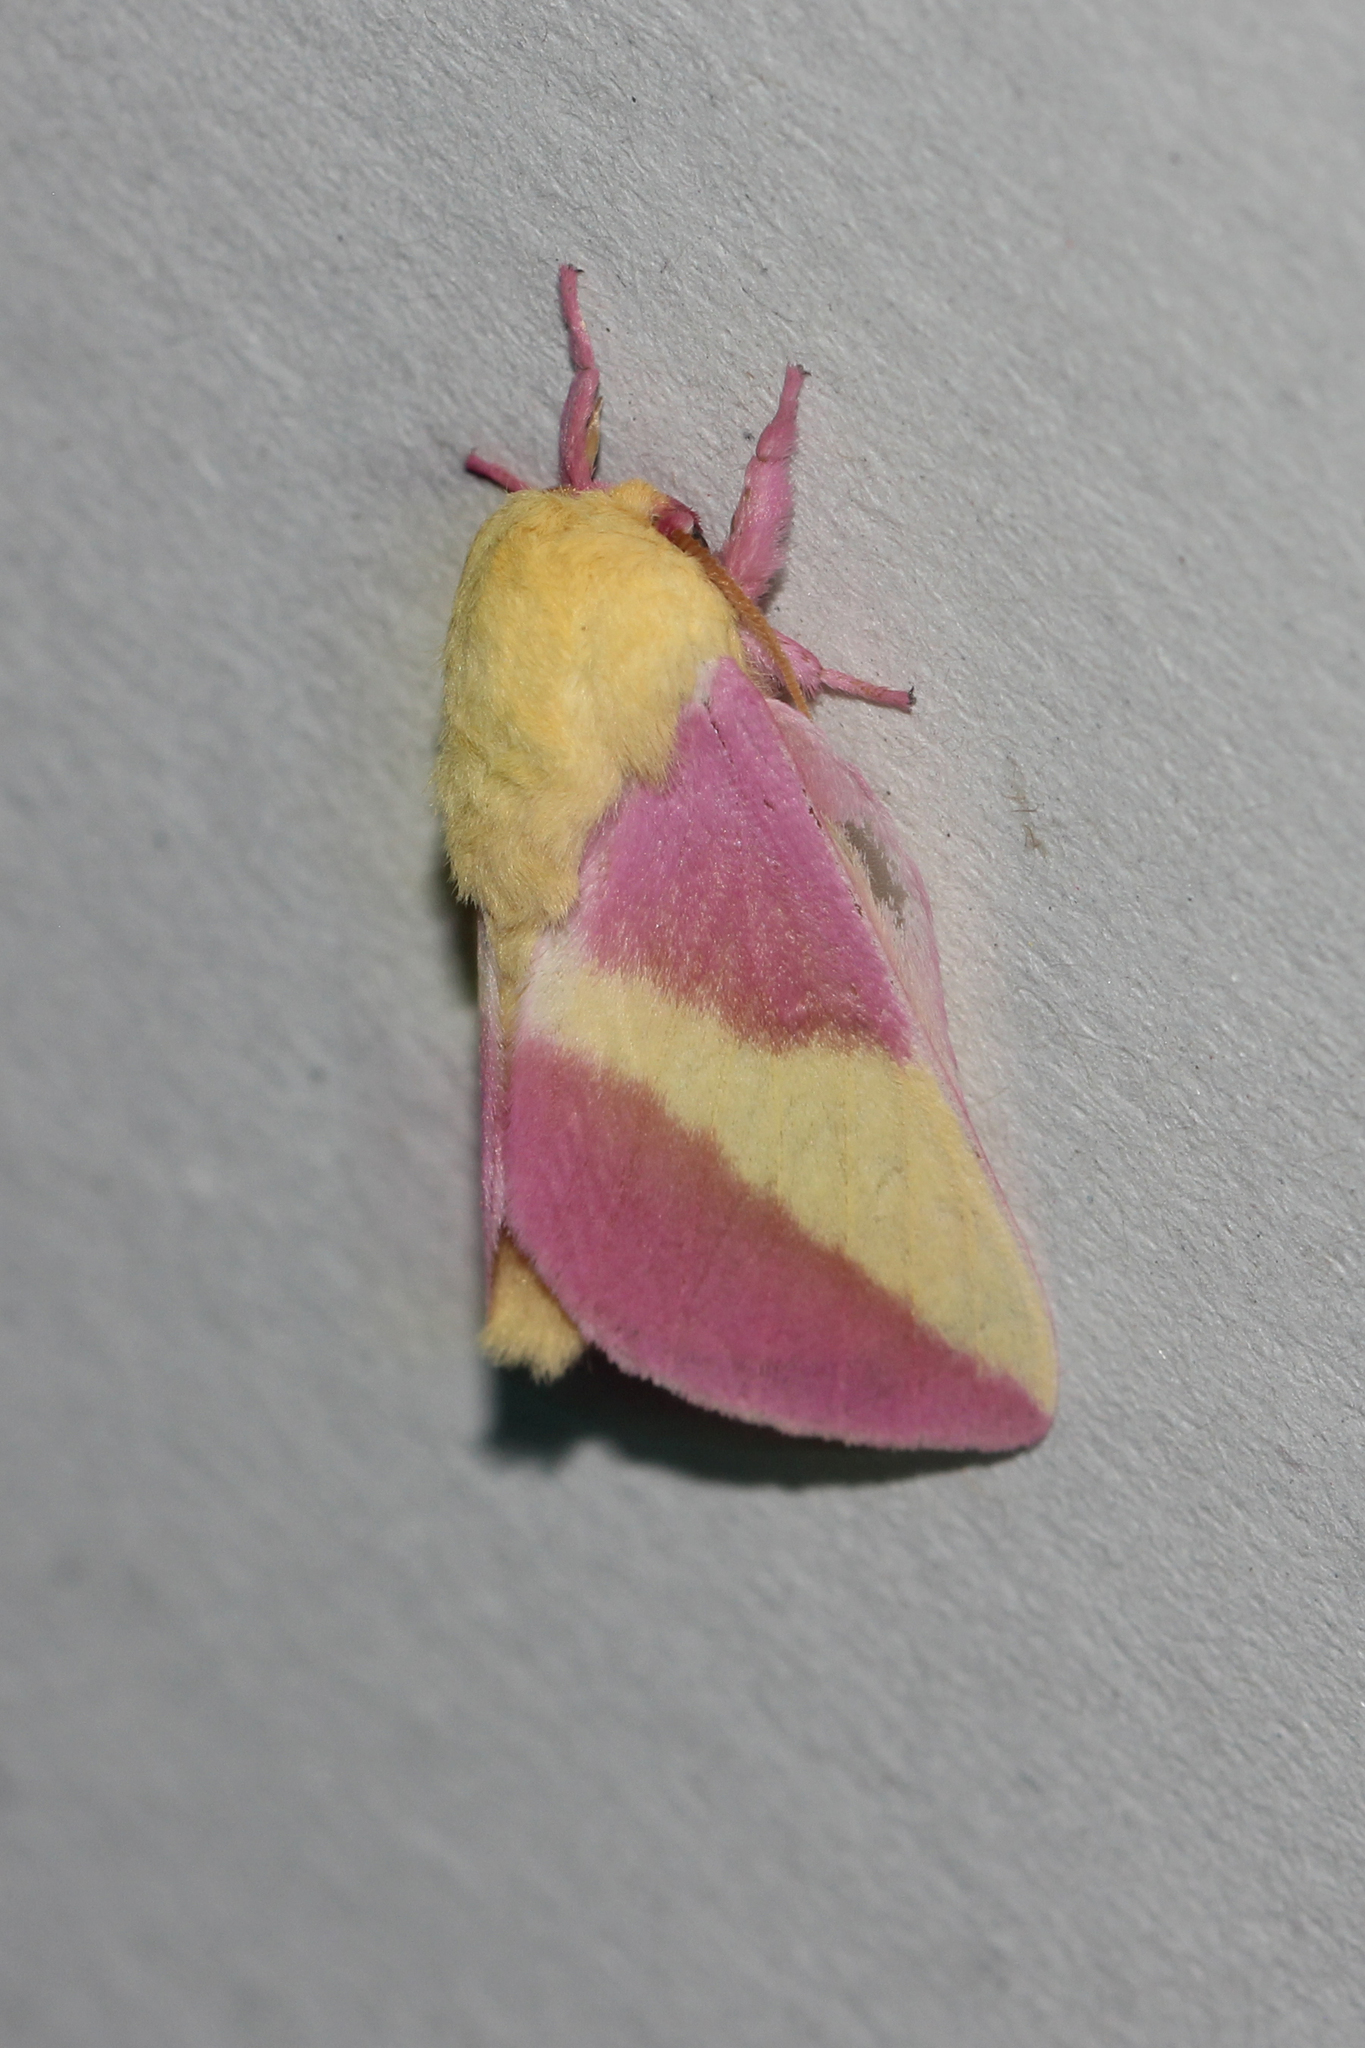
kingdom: Animalia
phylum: Arthropoda
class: Insecta
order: Lepidoptera
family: Saturniidae
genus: Dryocampa
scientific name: Dryocampa rubicunda
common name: Rosy maple moth
